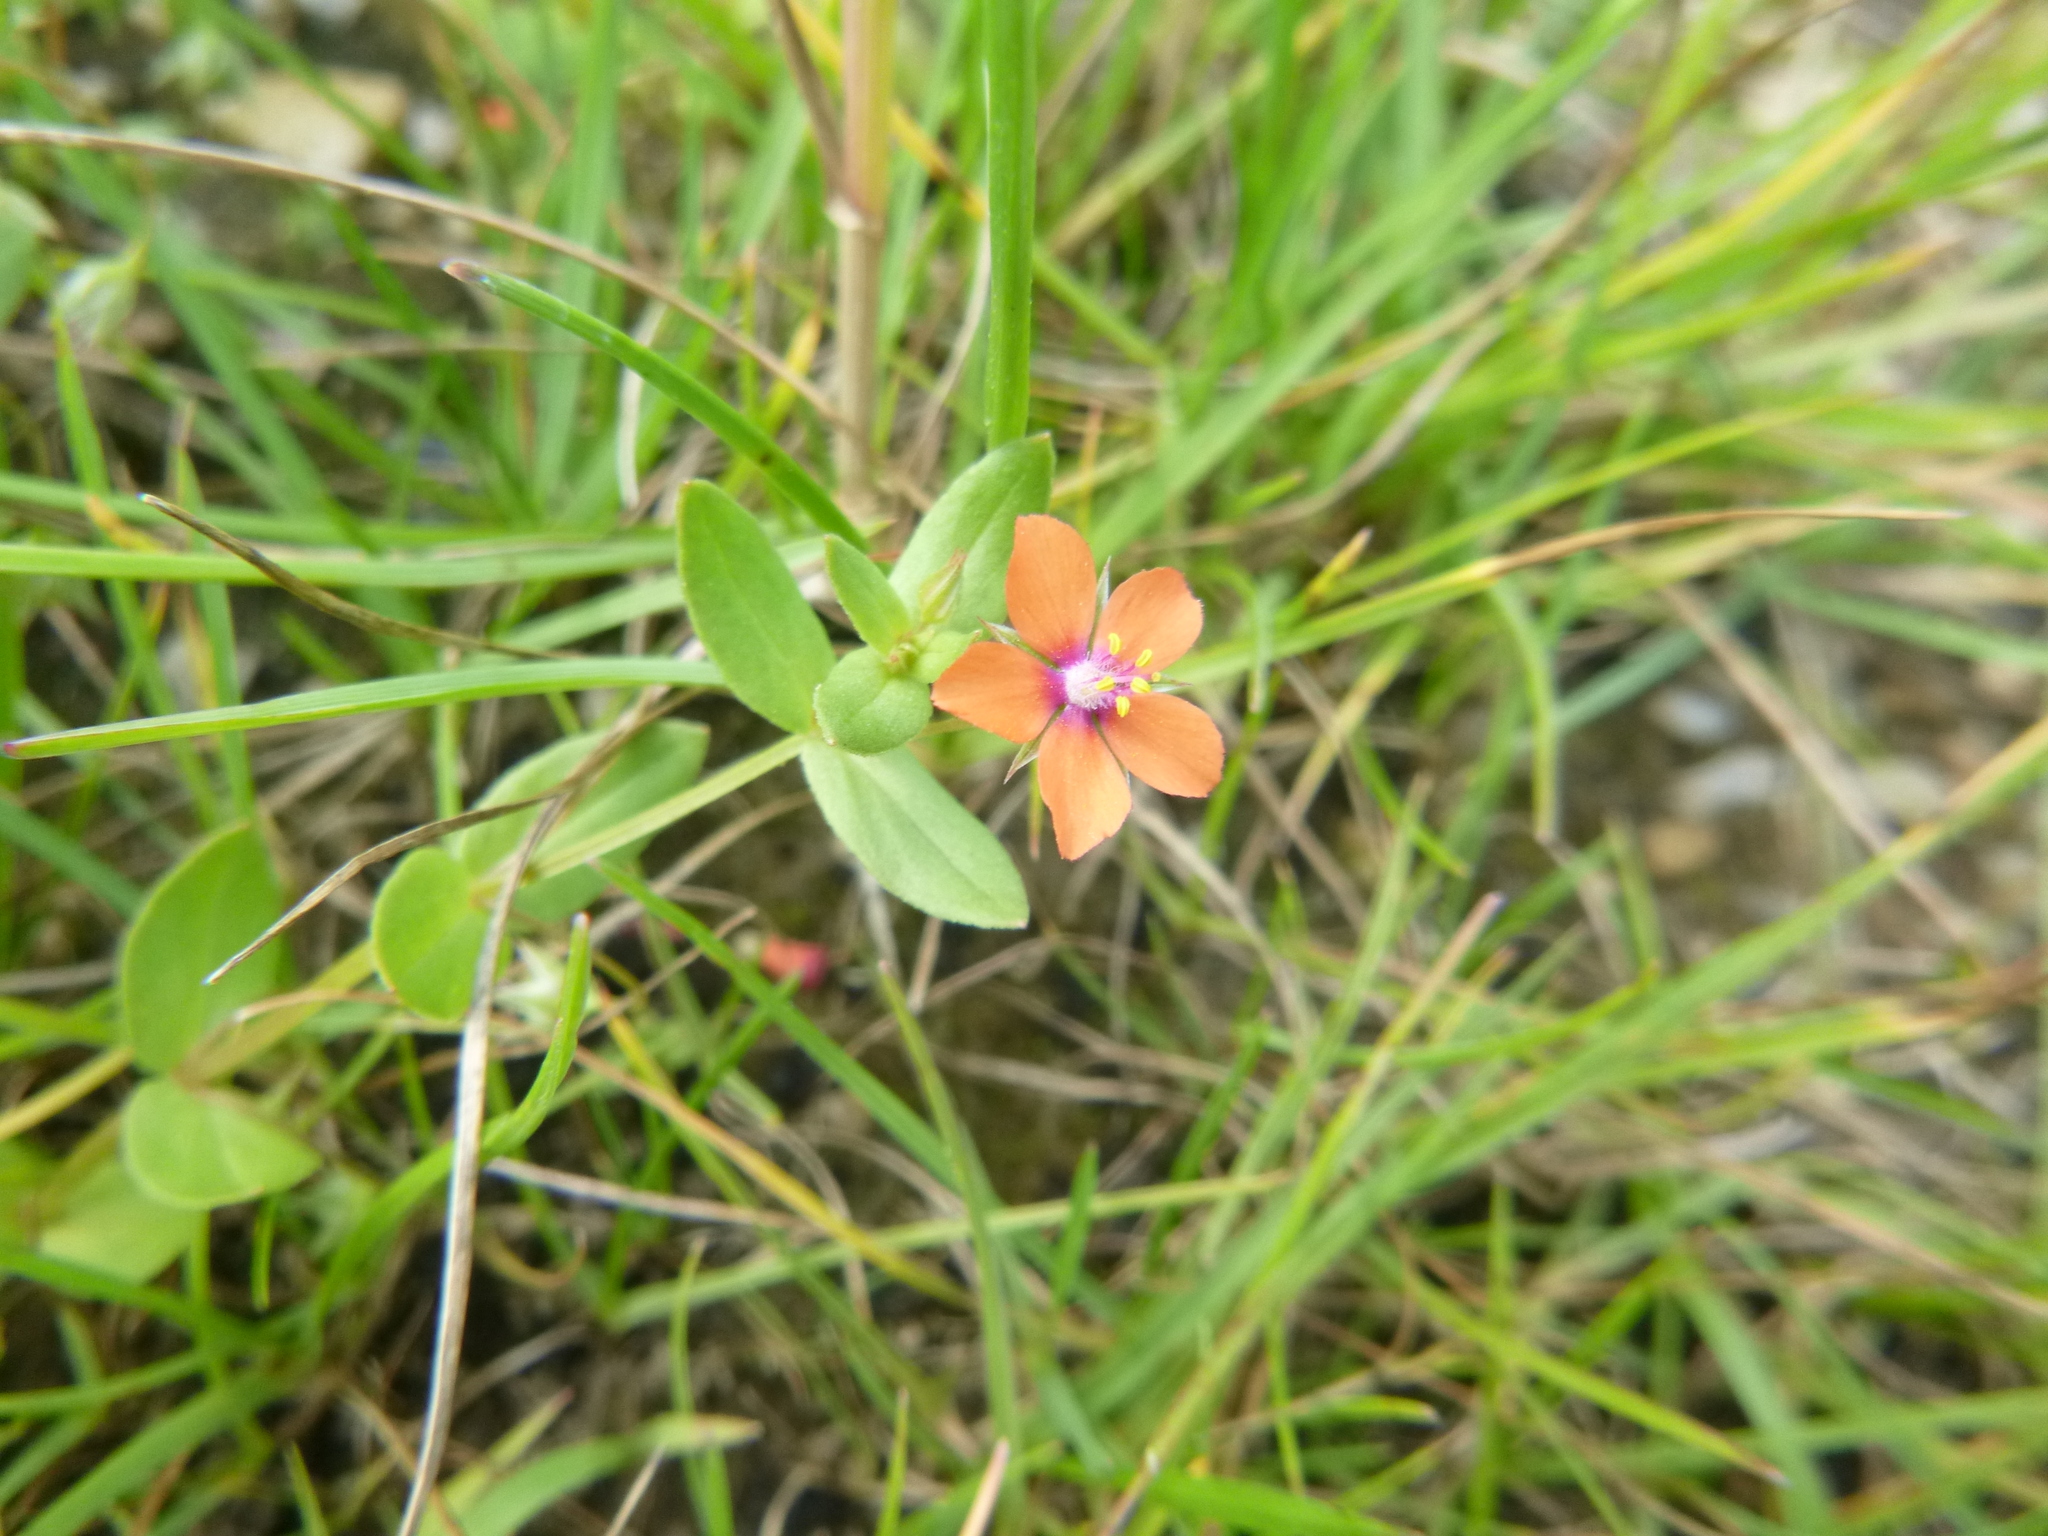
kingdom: Plantae
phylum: Tracheophyta
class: Magnoliopsida
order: Ericales
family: Primulaceae
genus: Lysimachia
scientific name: Lysimachia arvensis
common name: Scarlet pimpernel
